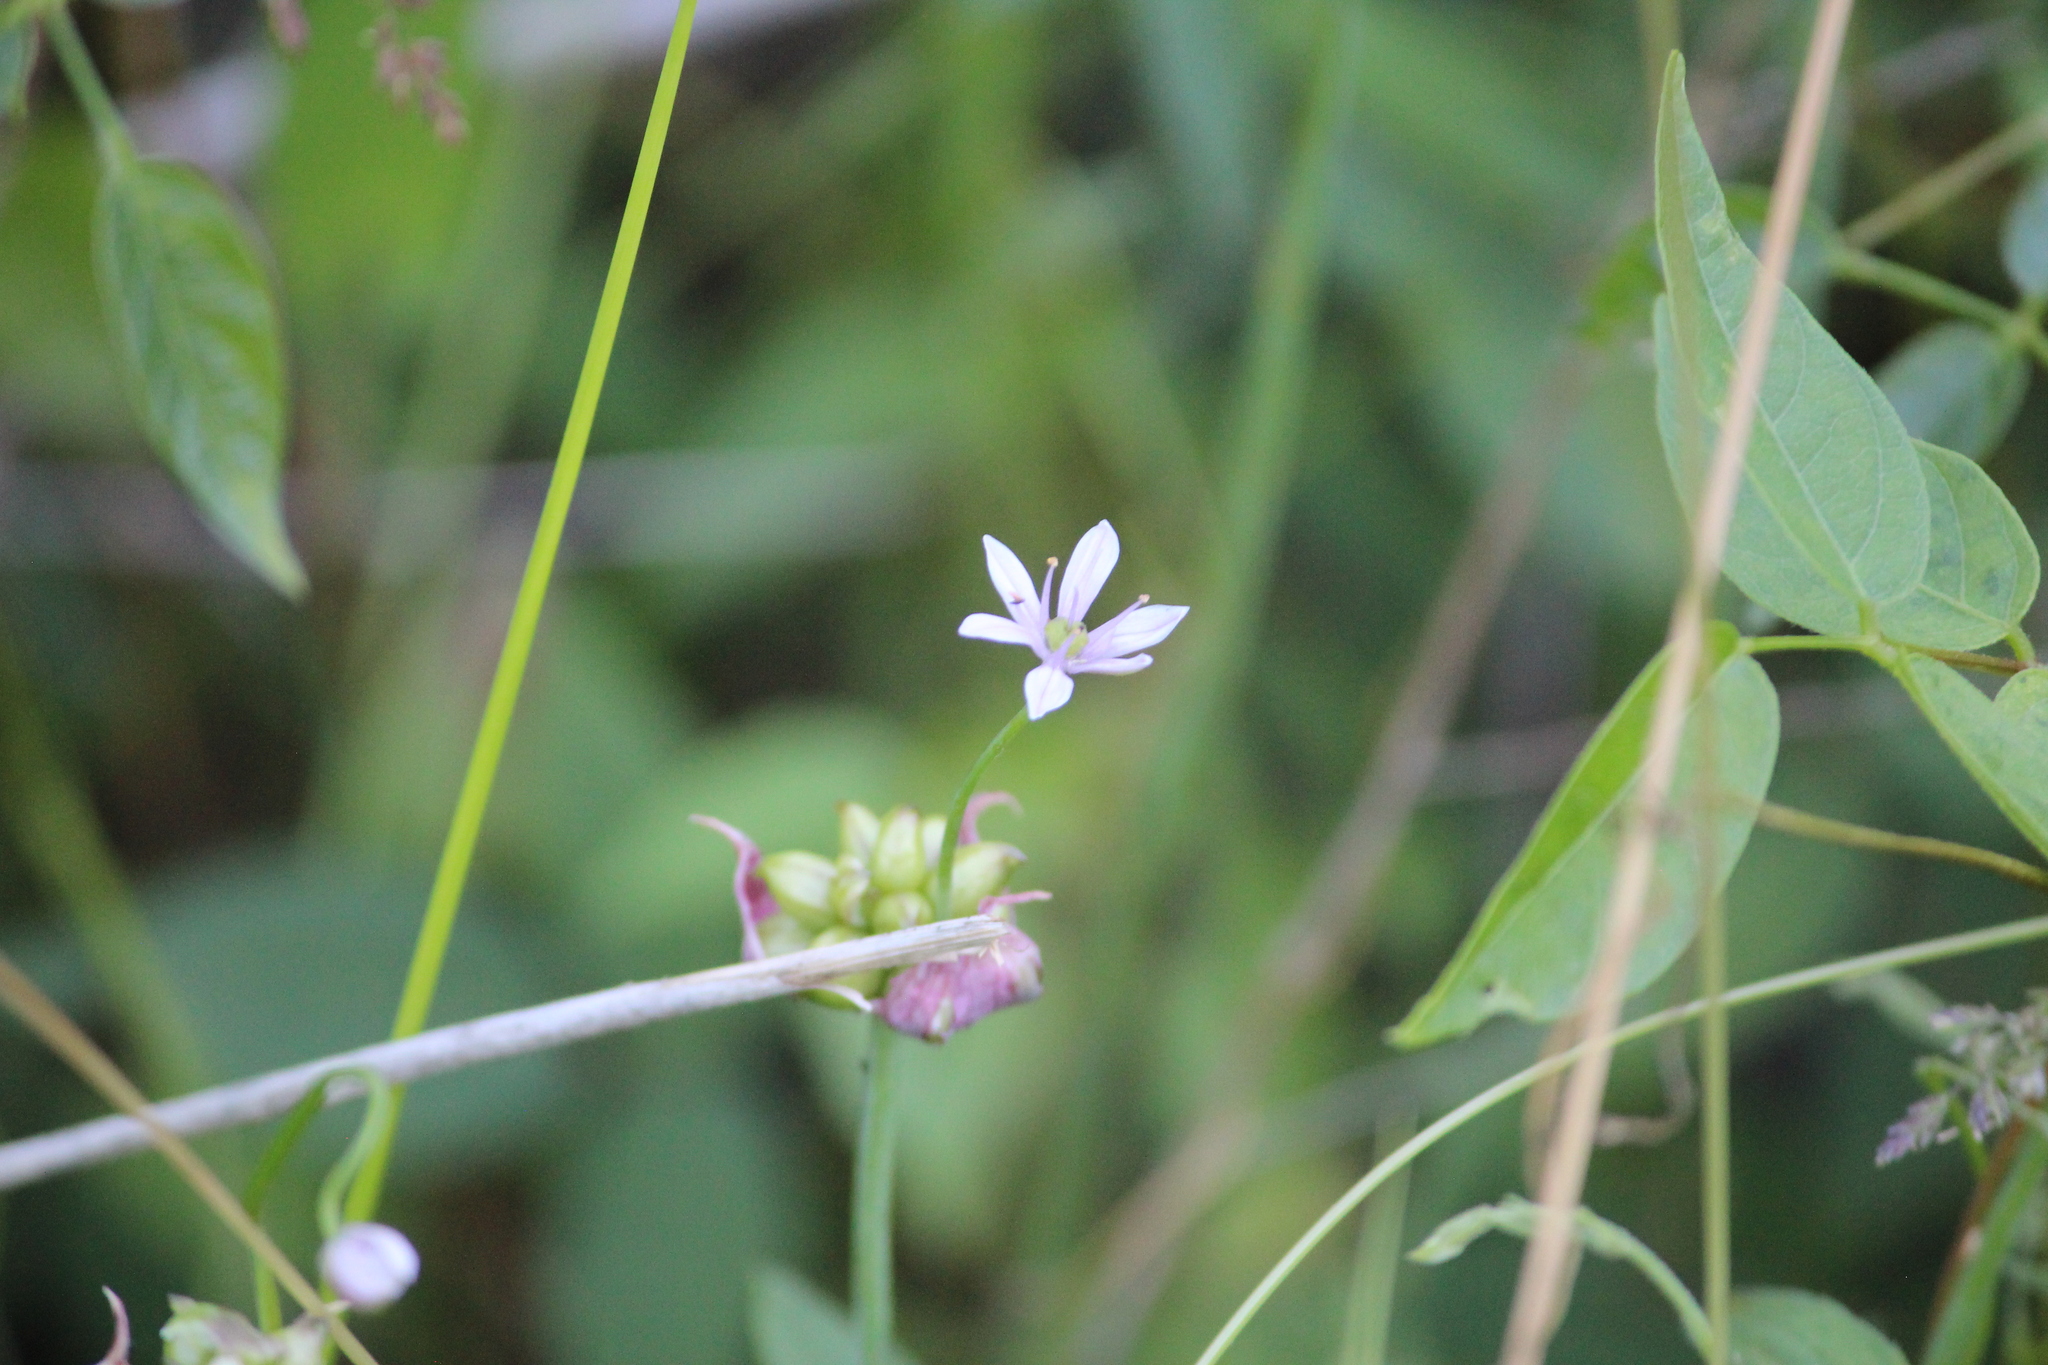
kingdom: Plantae
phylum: Tracheophyta
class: Liliopsida
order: Asparagales
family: Amaryllidaceae
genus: Allium
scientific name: Allium canadense
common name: Meadow garlic
